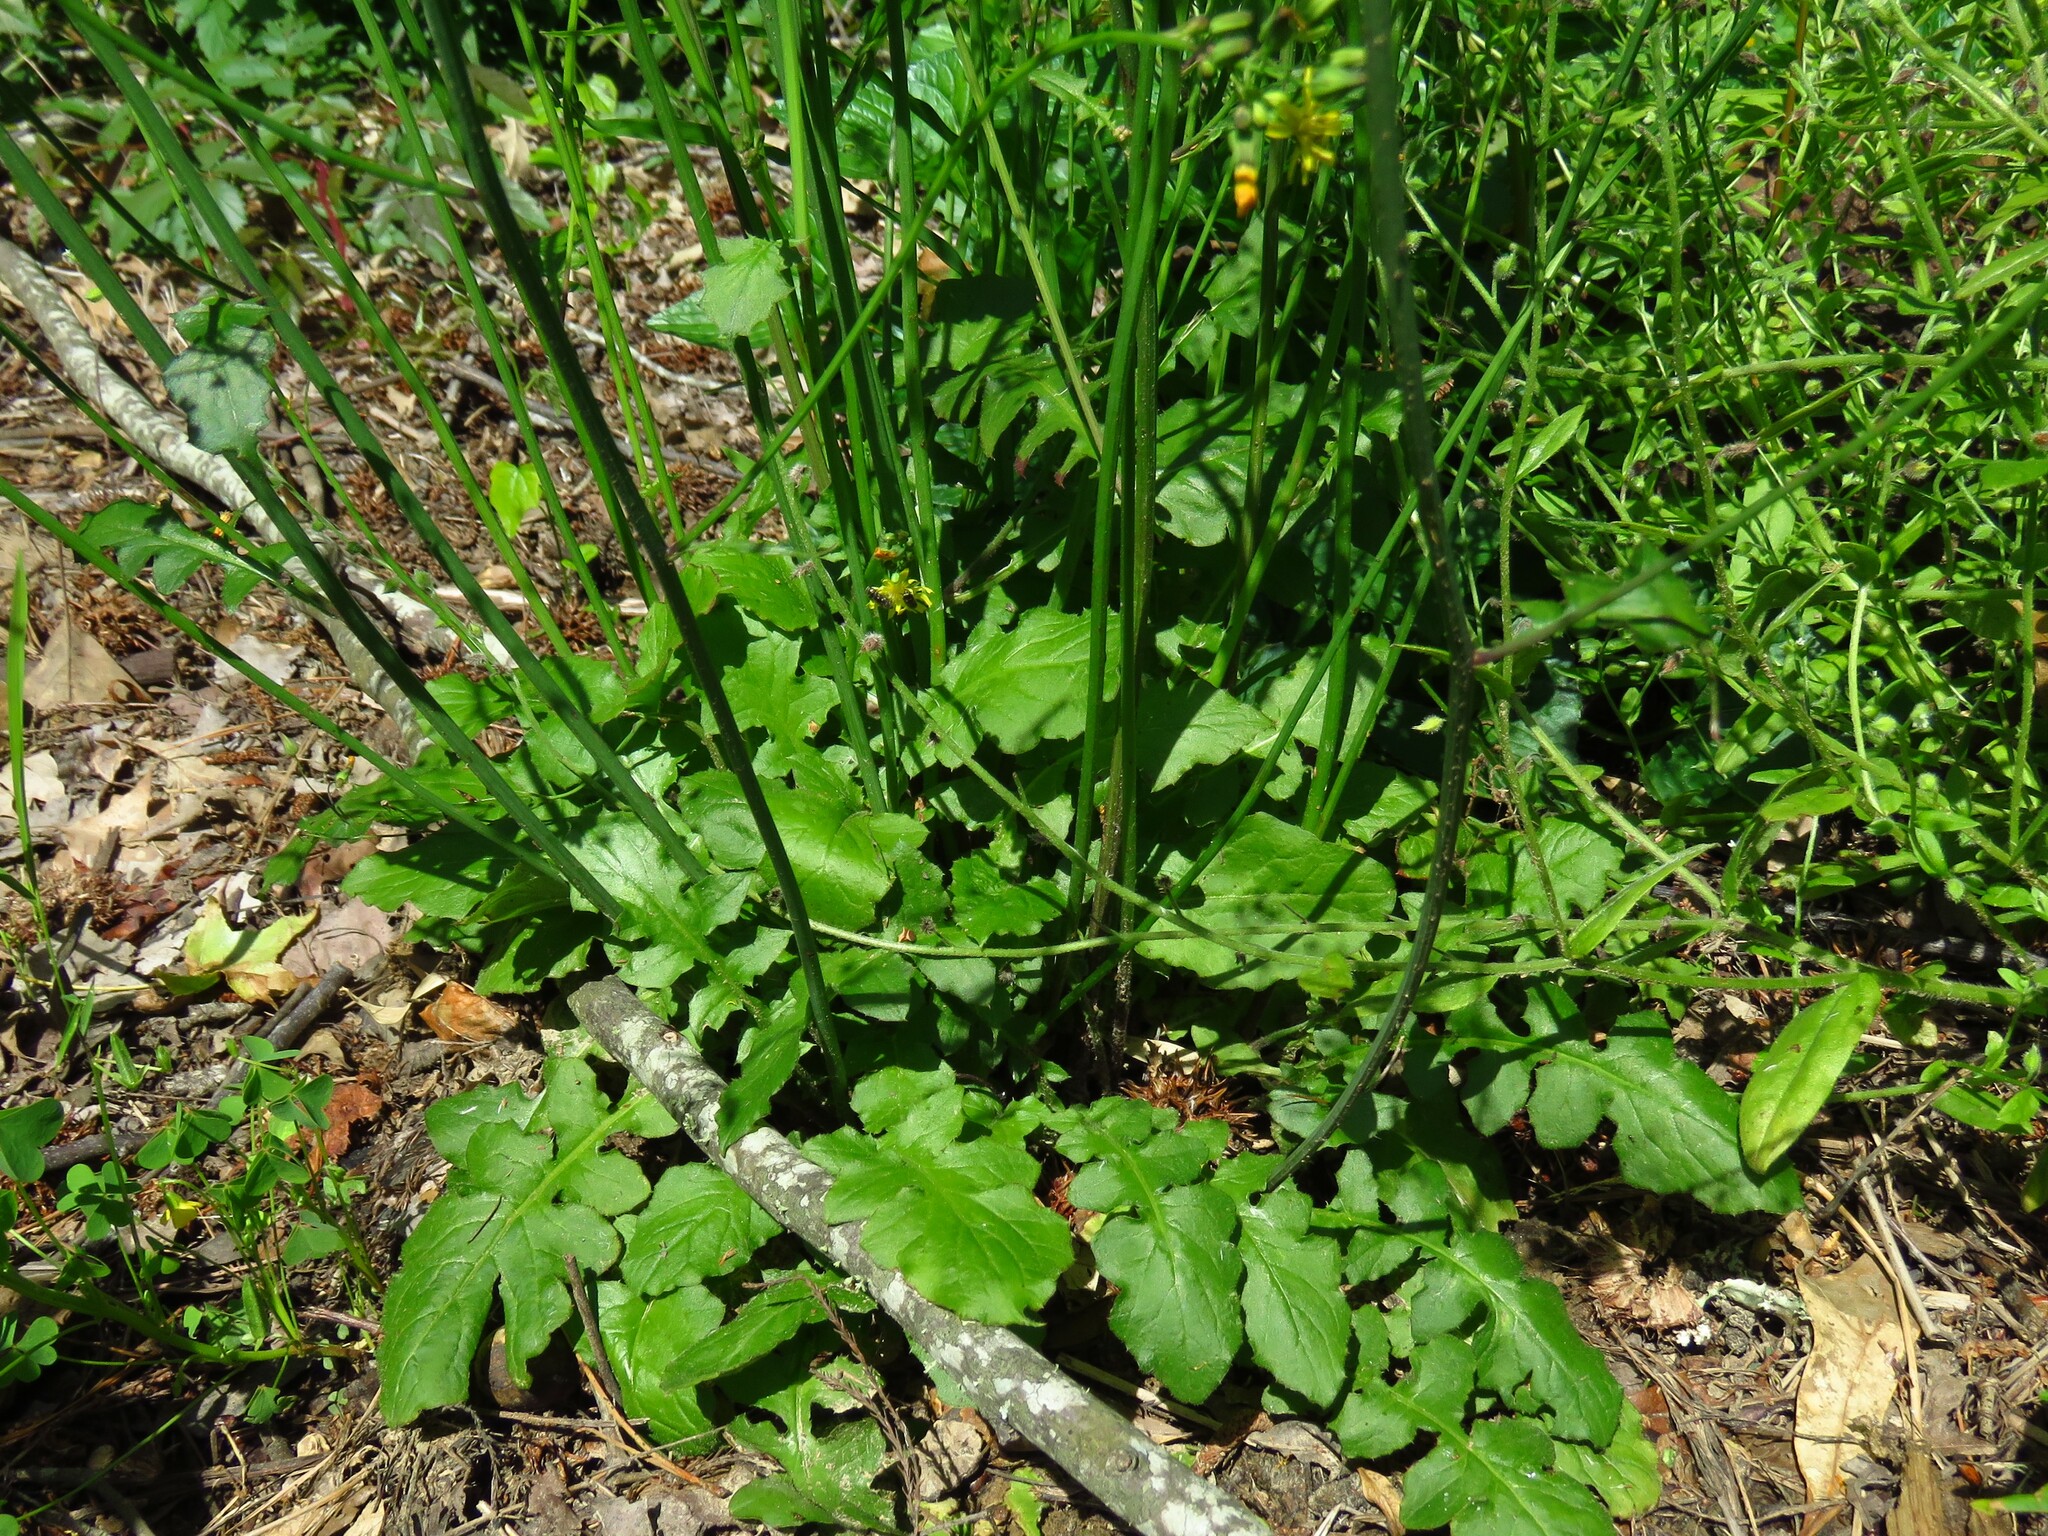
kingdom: Plantae
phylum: Tracheophyta
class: Magnoliopsida
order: Asterales
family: Asteraceae
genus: Youngia
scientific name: Youngia japonica
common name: Oriental false hawksbeard
